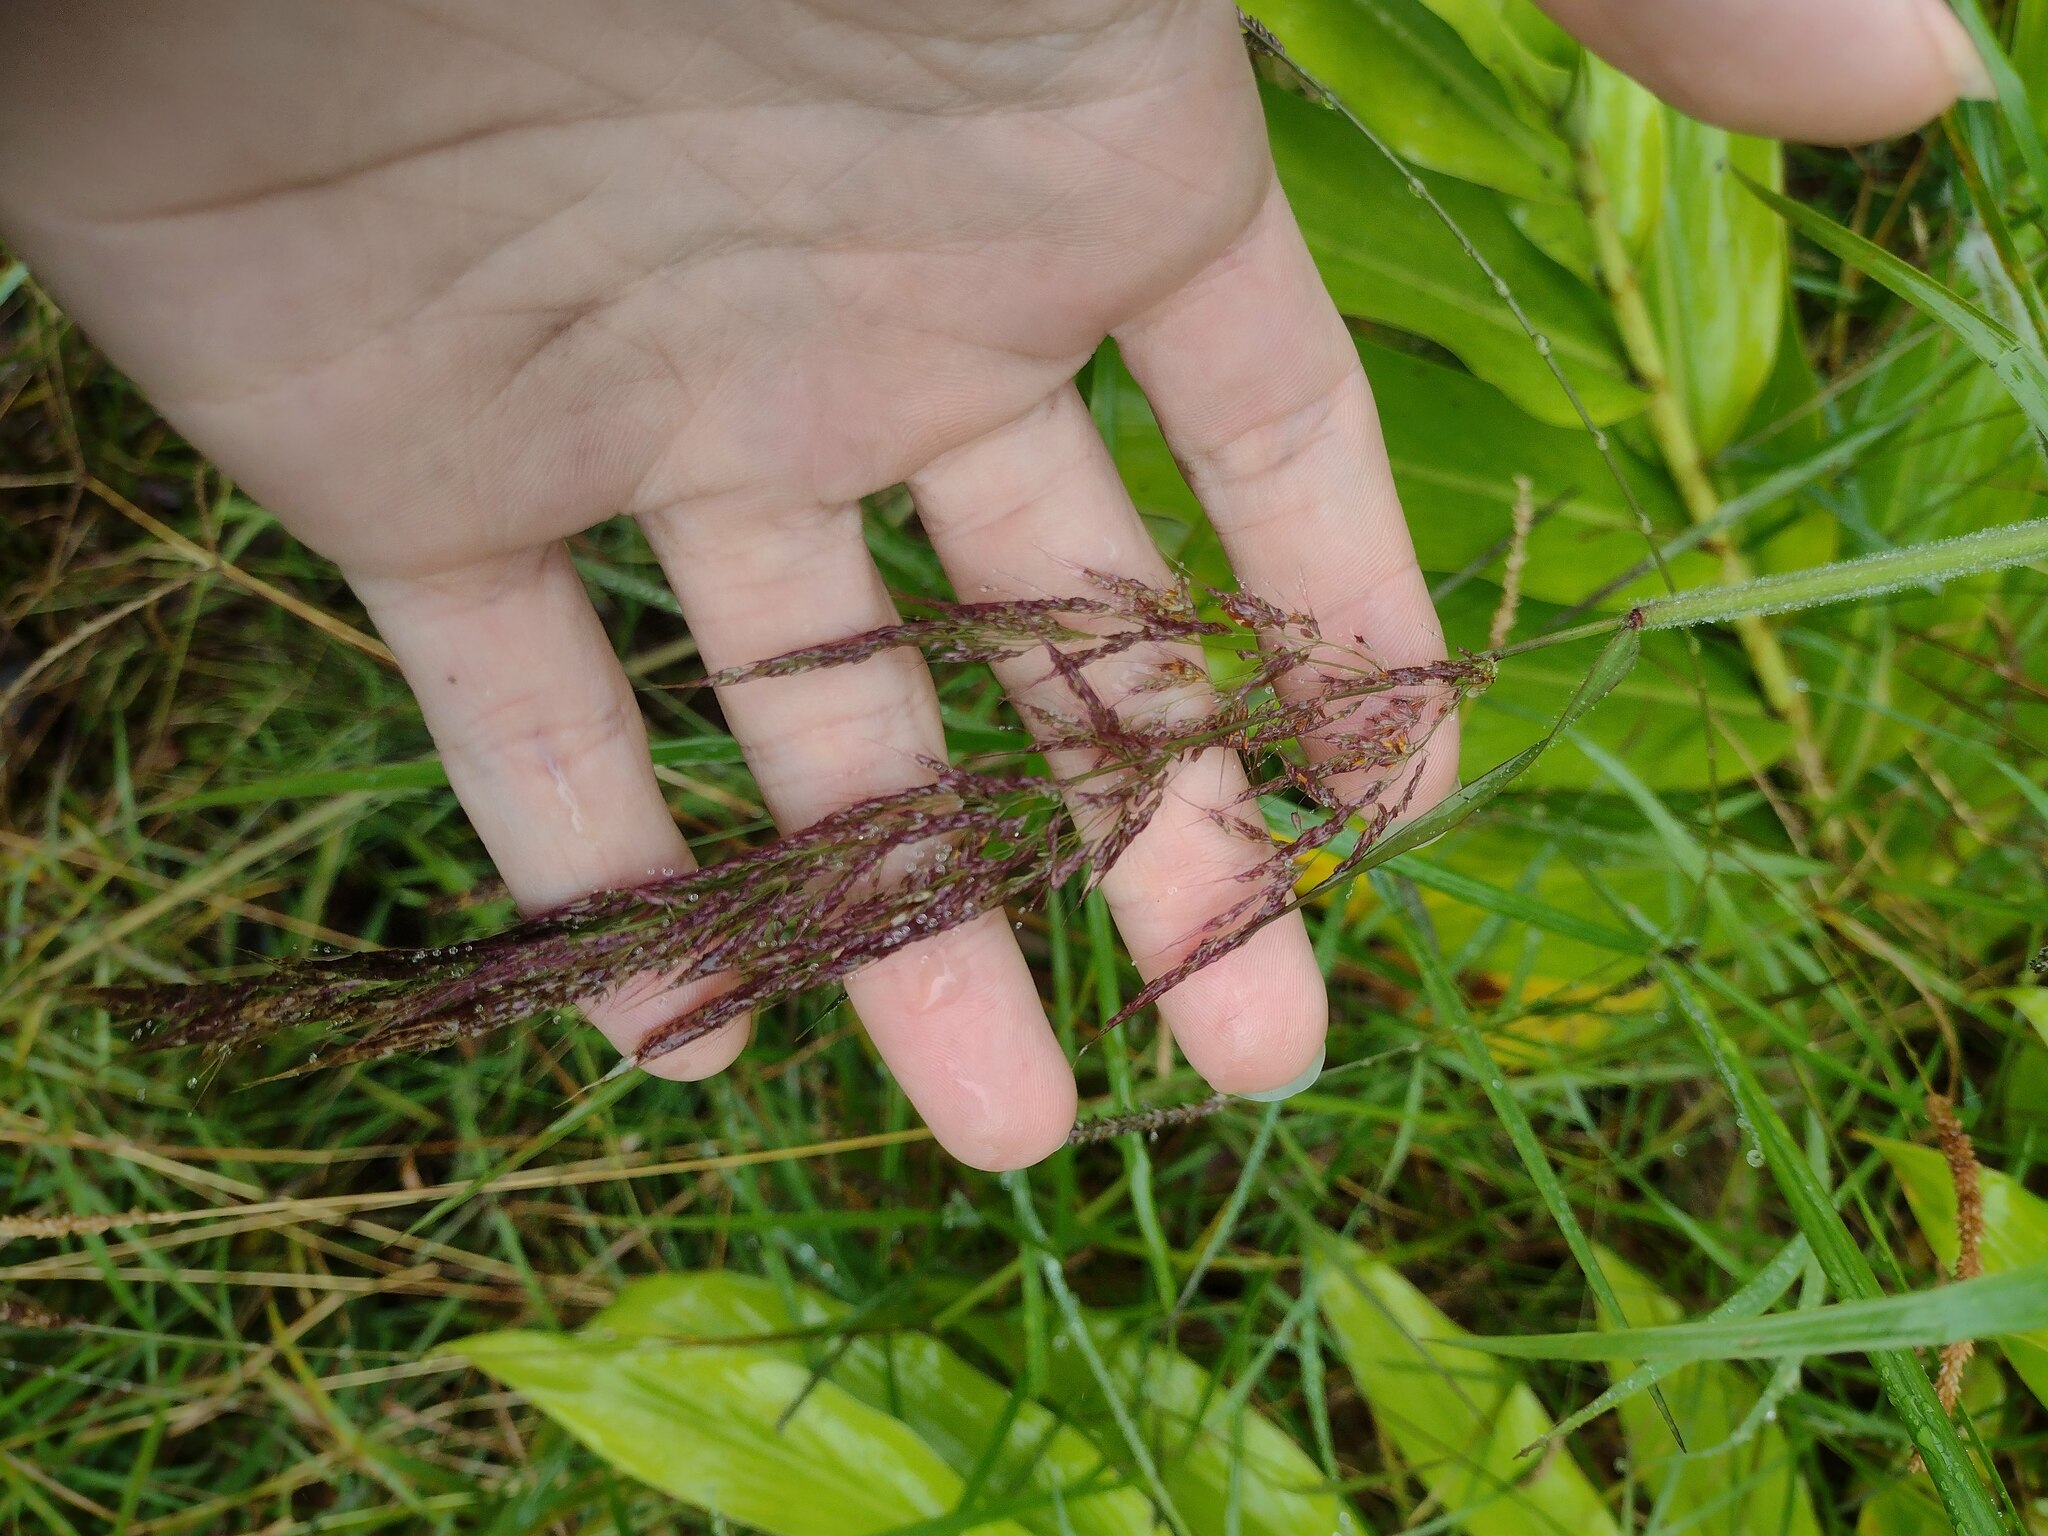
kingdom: Plantae
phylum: Tracheophyta
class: Liliopsida
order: Poales
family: Poaceae
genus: Melinis
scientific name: Melinis minutiflora
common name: Molassesgrass
